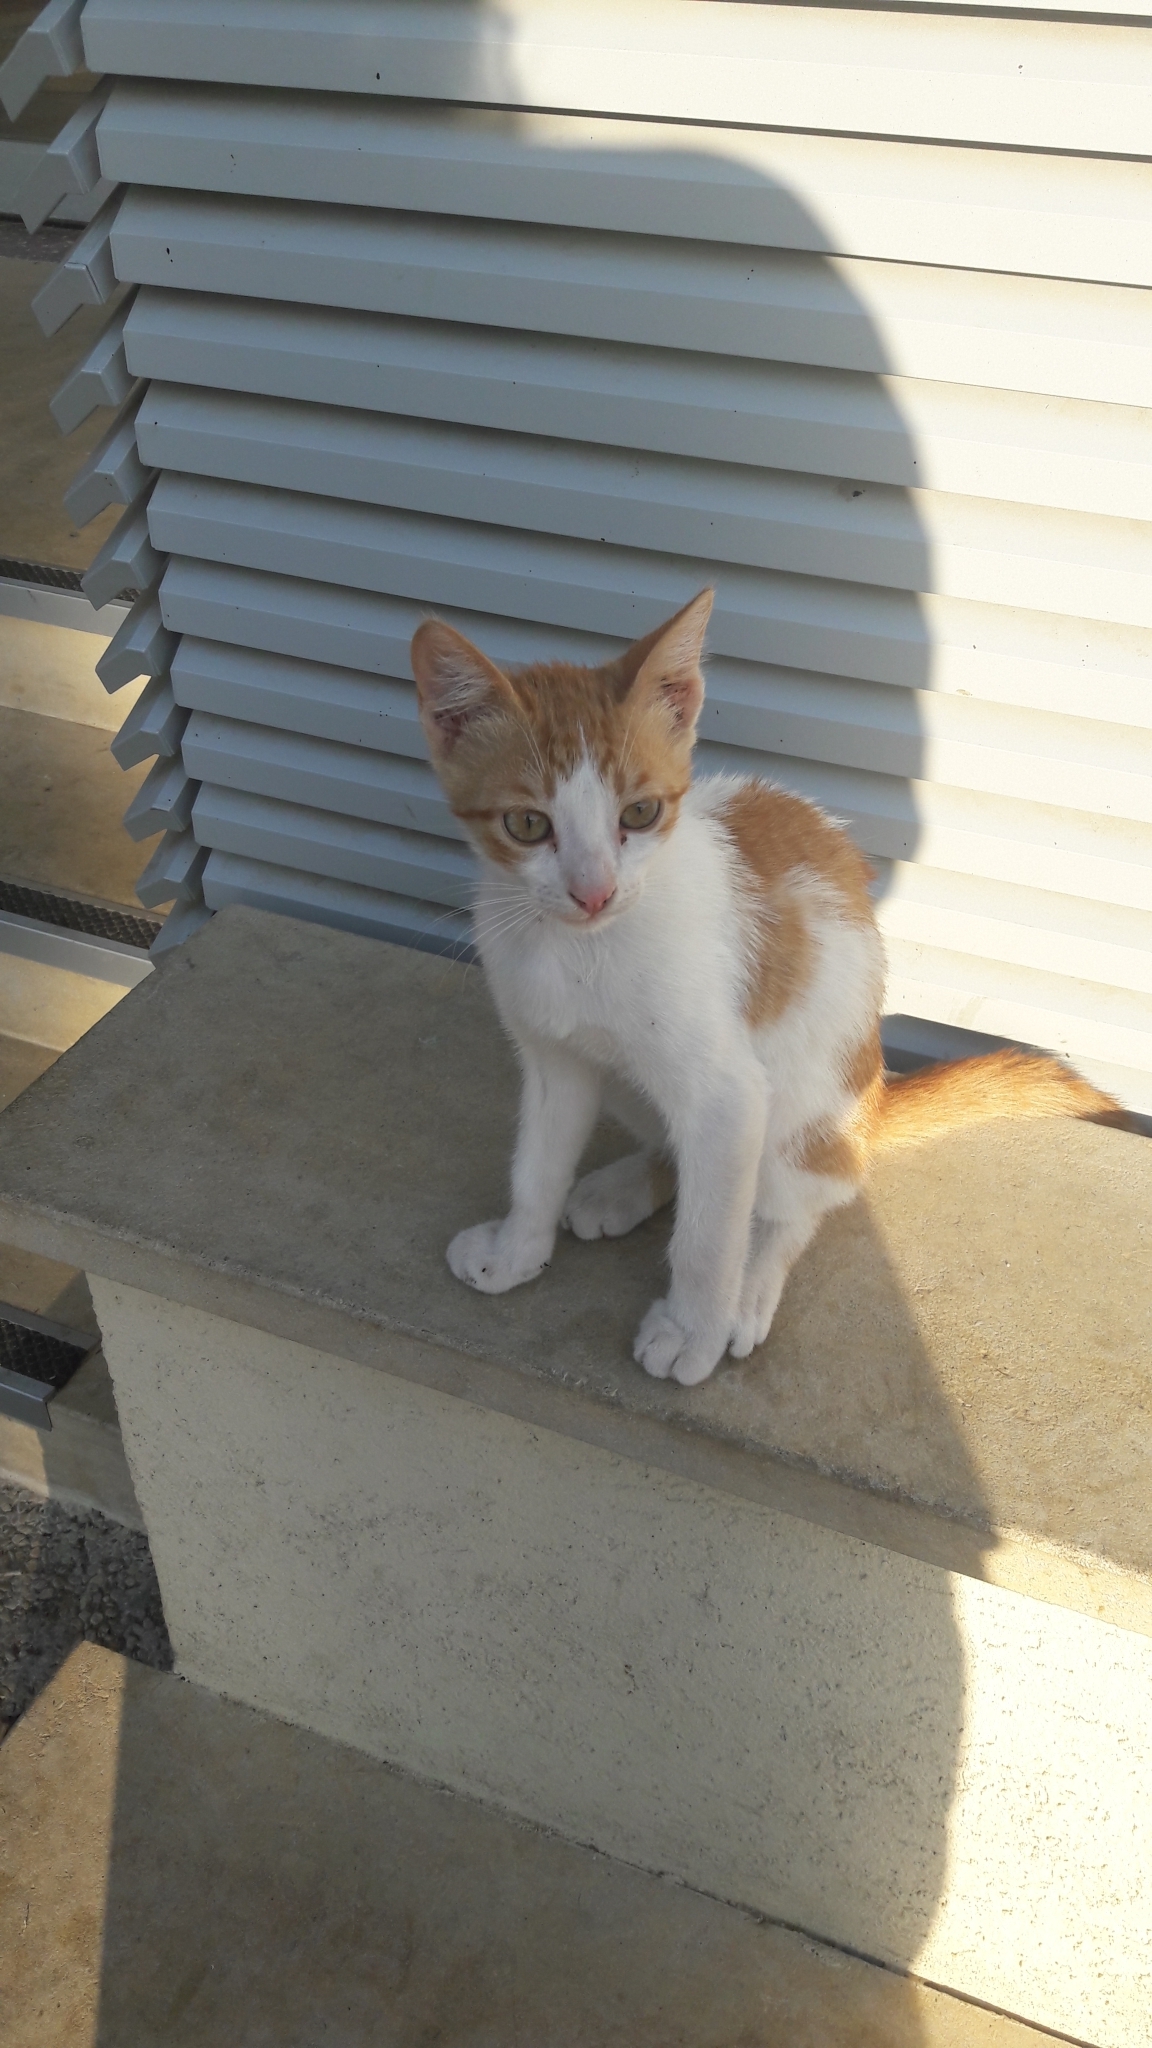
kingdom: Animalia
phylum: Chordata
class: Mammalia
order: Carnivora
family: Felidae
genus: Felis
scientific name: Felis catus
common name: Domestic cat
